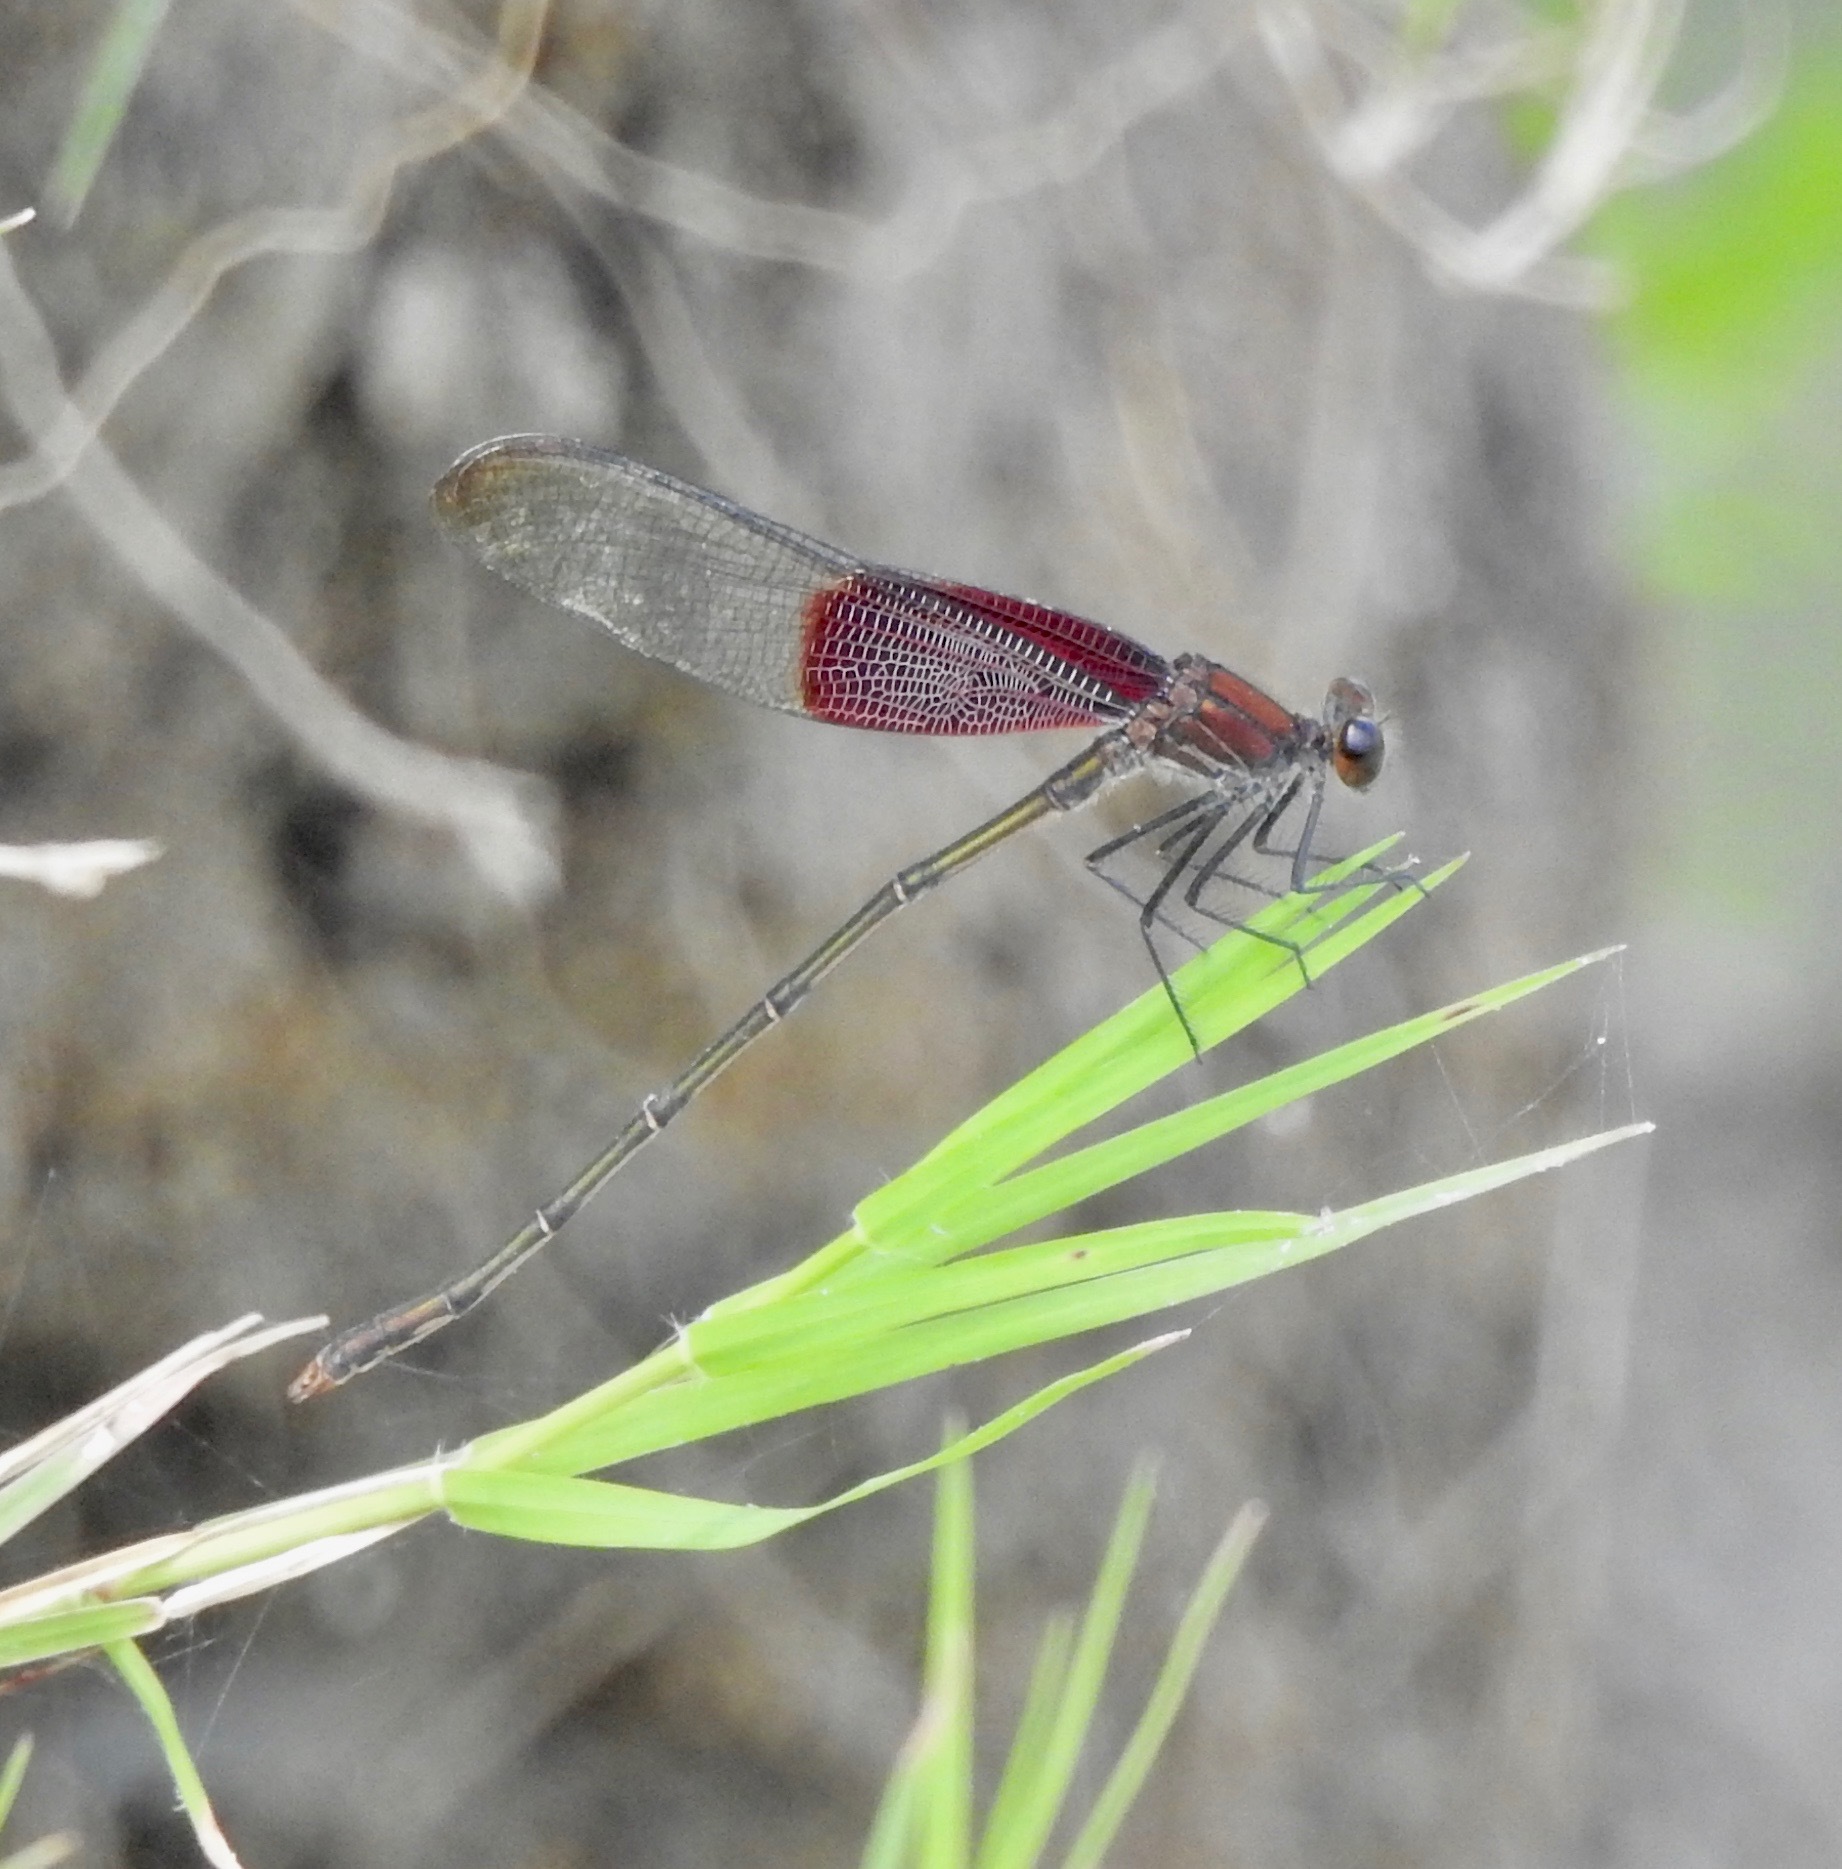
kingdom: Animalia
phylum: Arthropoda
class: Insecta
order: Odonata
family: Calopterygidae
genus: Hetaerina
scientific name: Hetaerina americana
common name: American rubyspot
